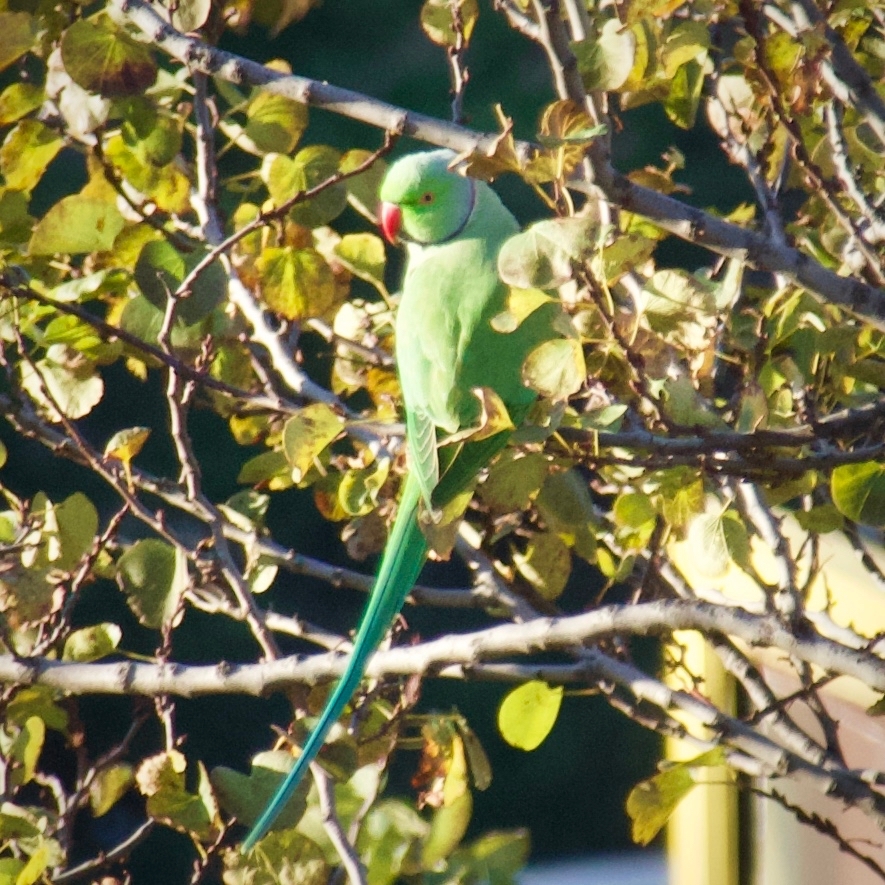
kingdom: Animalia
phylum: Chordata
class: Aves
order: Psittaciformes
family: Psittacidae
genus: Psittacula
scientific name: Psittacula krameri
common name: Rose-ringed parakeet
